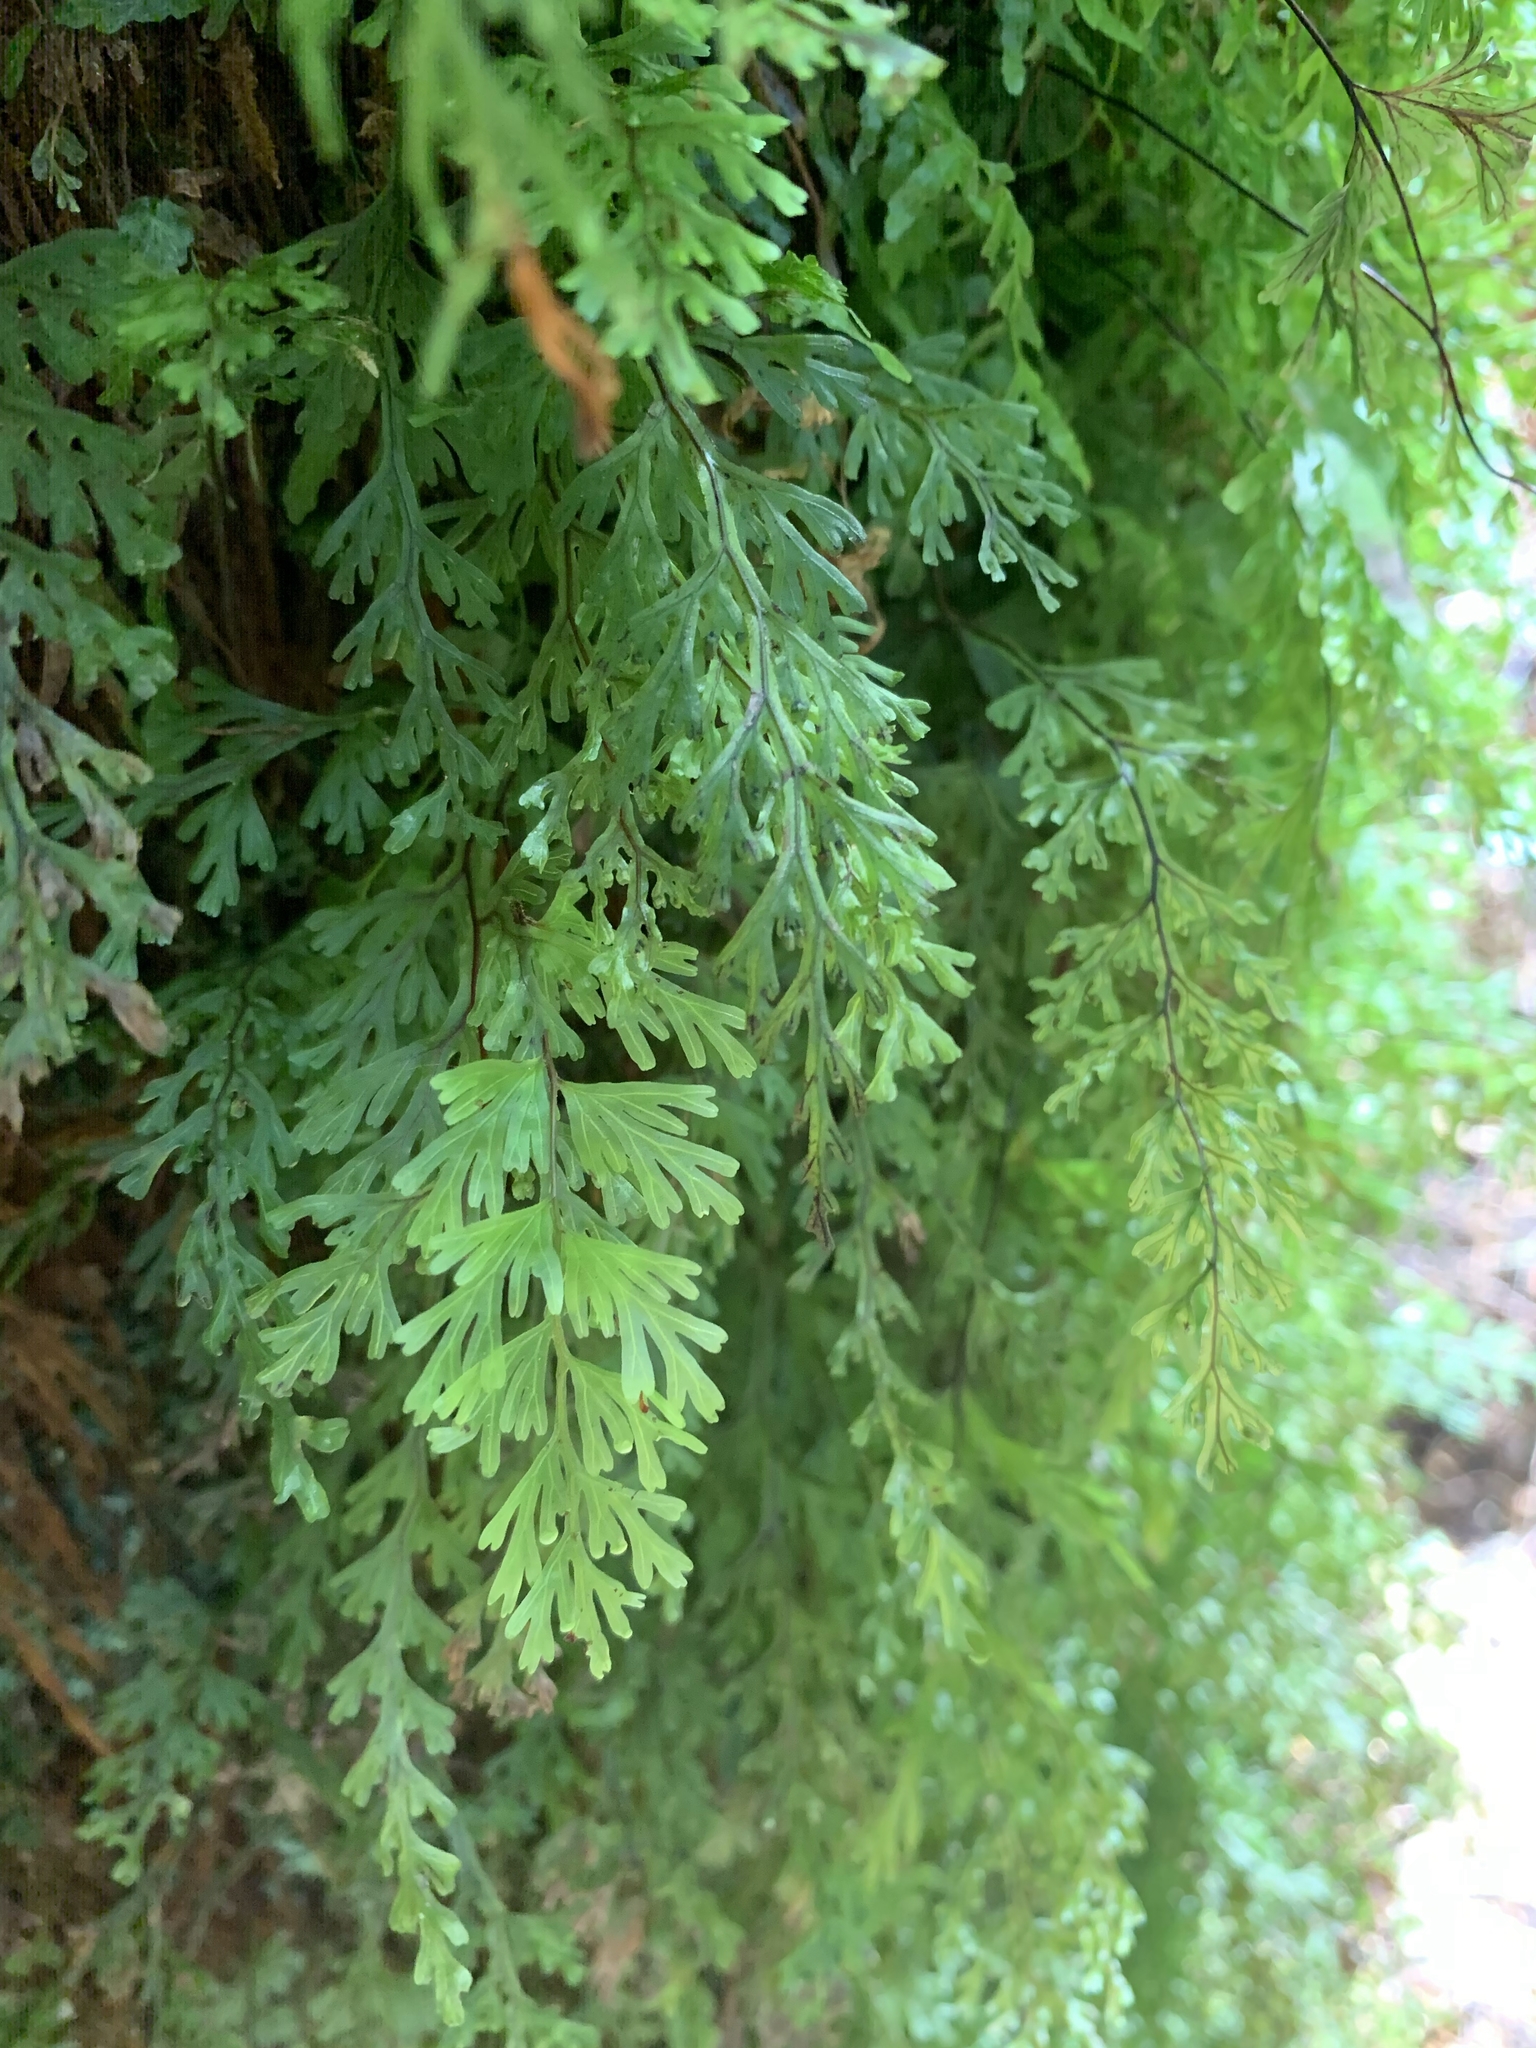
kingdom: Plantae
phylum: Tracheophyta
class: Polypodiopsida
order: Hymenophyllales
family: Hymenophyllaceae
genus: Hymenophyllum
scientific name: Hymenophyllum flabellatum
